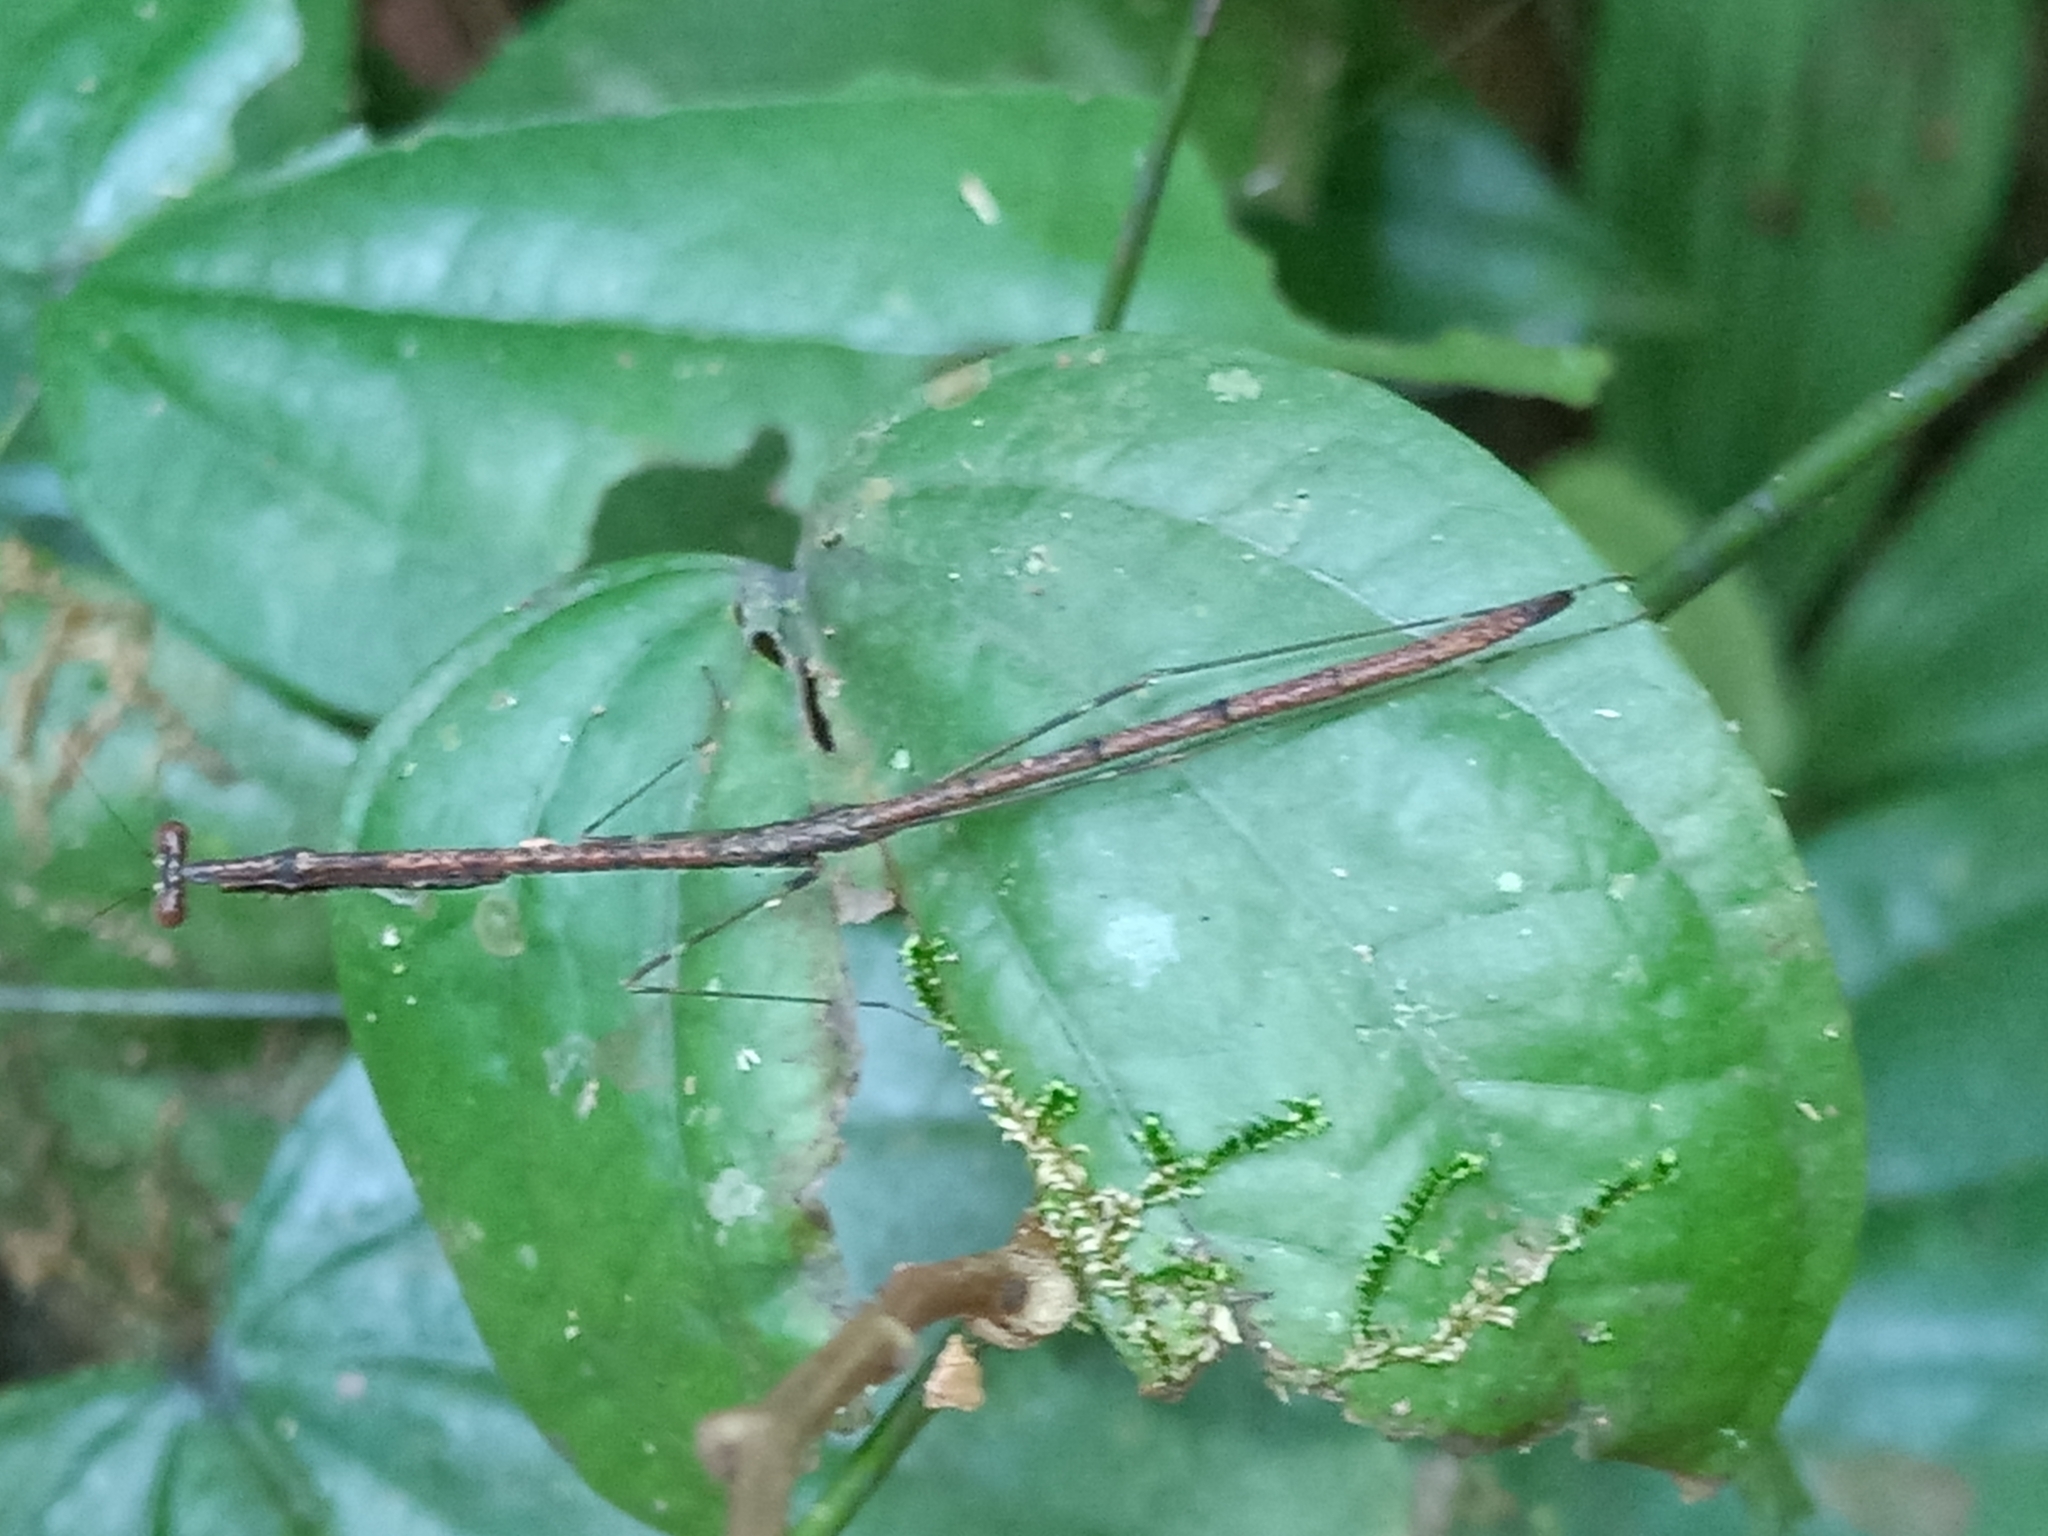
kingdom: Animalia
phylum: Arthropoda
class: Insecta
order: Mantodea
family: Angelidae
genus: Angela
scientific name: Angela
